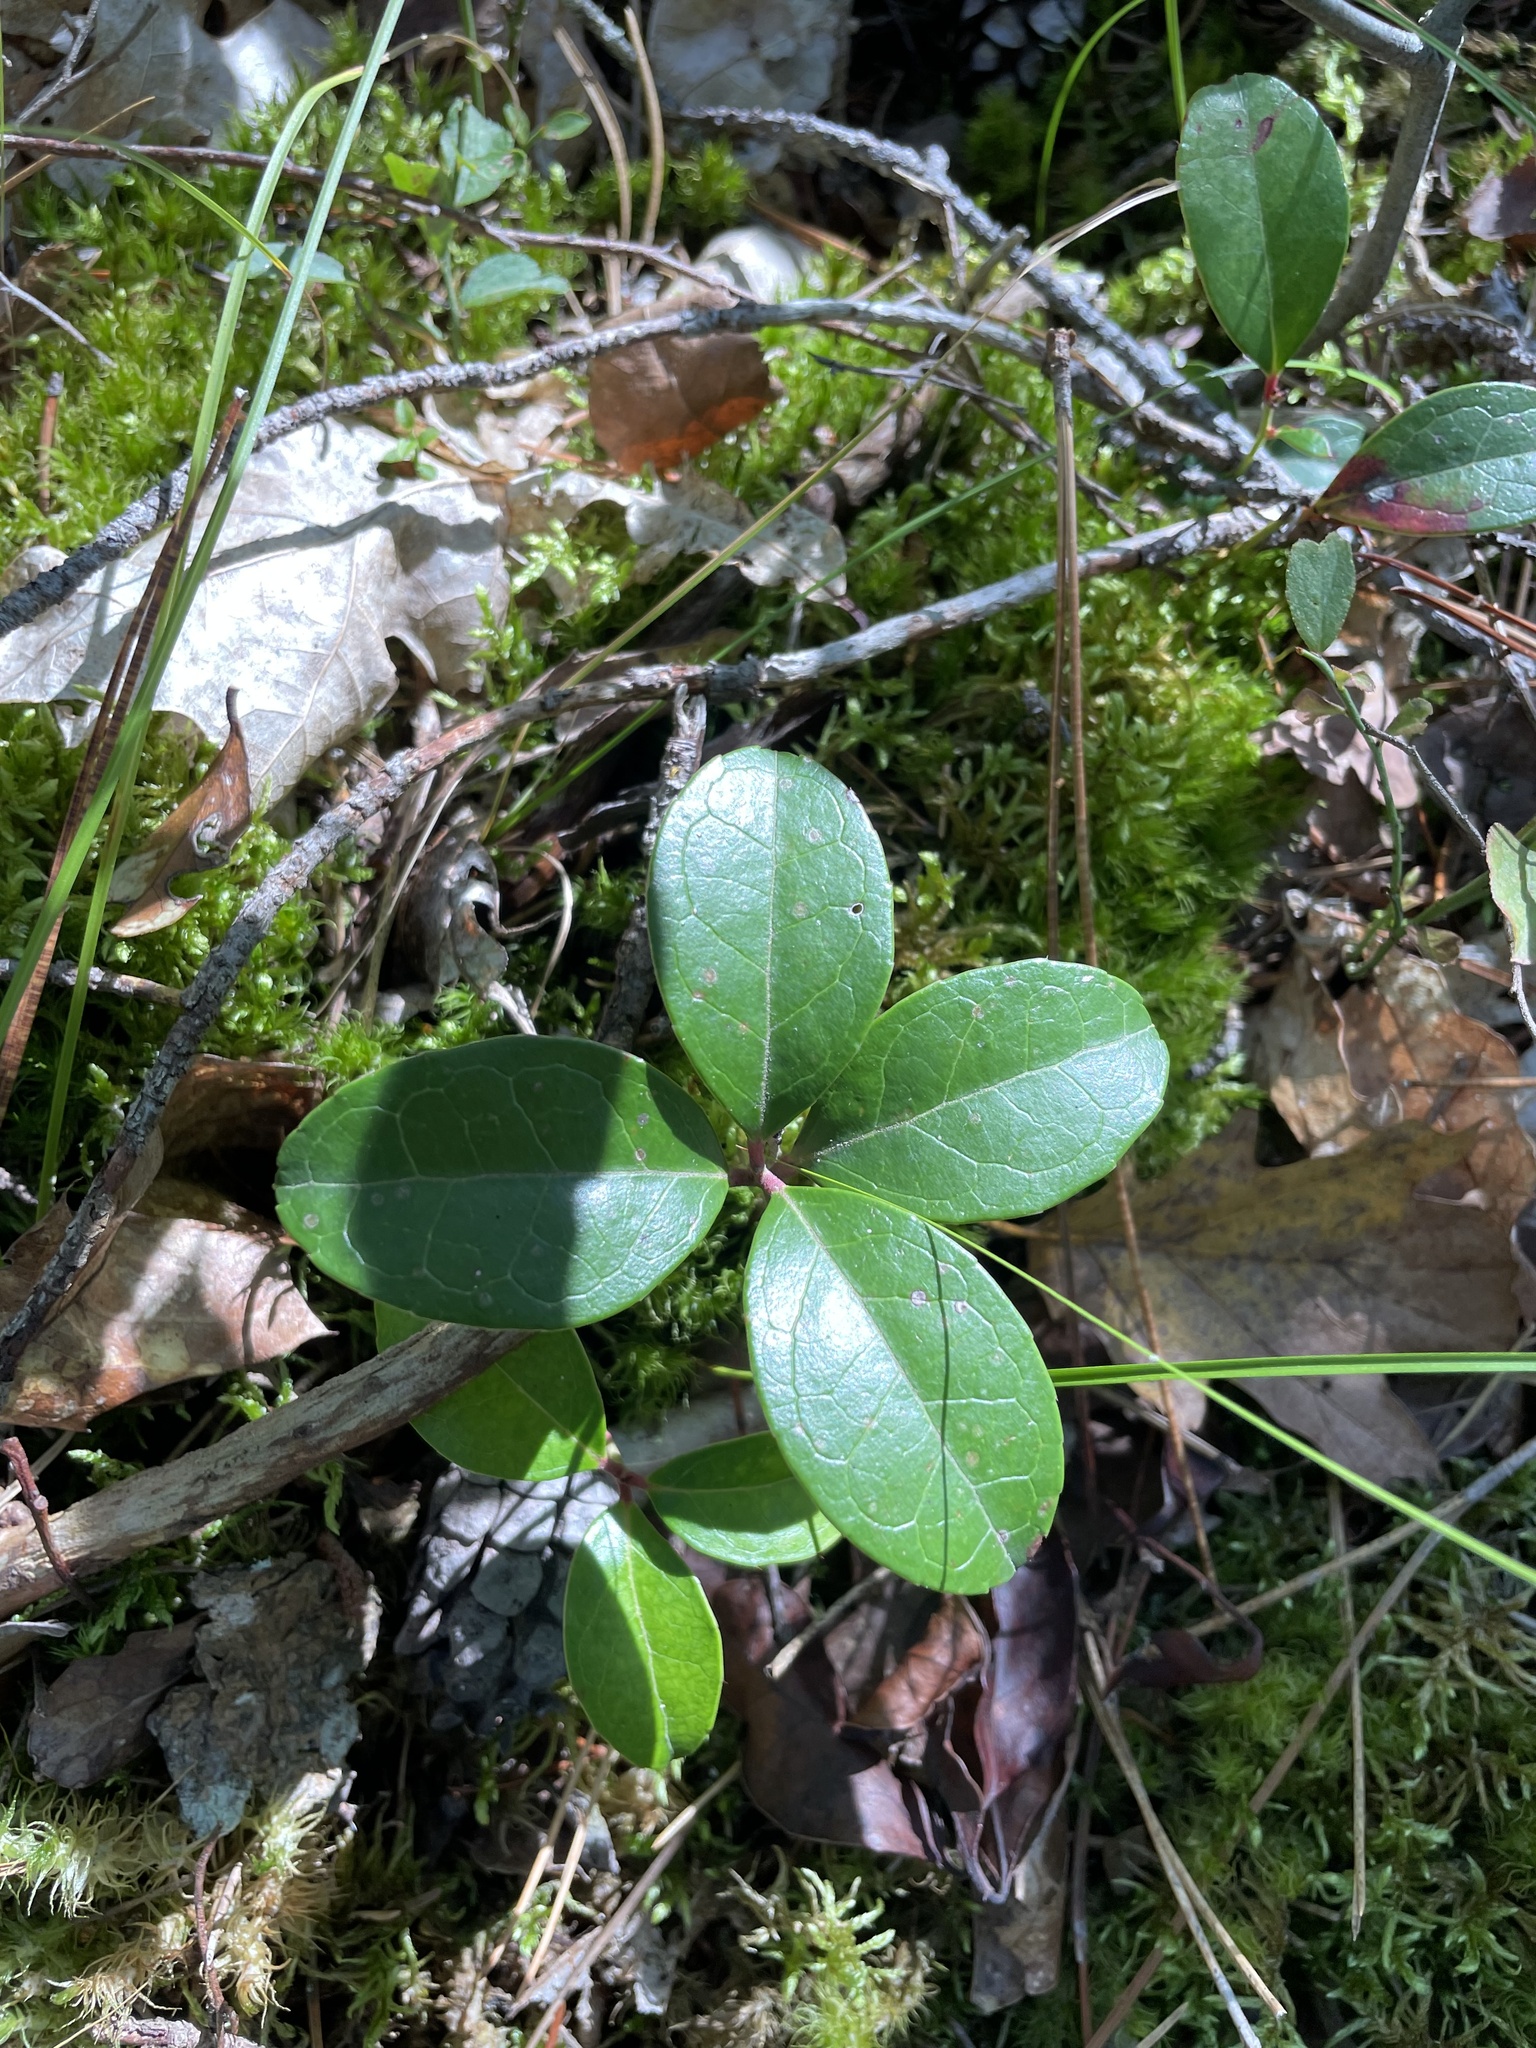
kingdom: Plantae
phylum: Tracheophyta
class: Magnoliopsida
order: Ericales
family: Ericaceae
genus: Gaultheria
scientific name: Gaultheria procumbens
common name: Checkerberry
